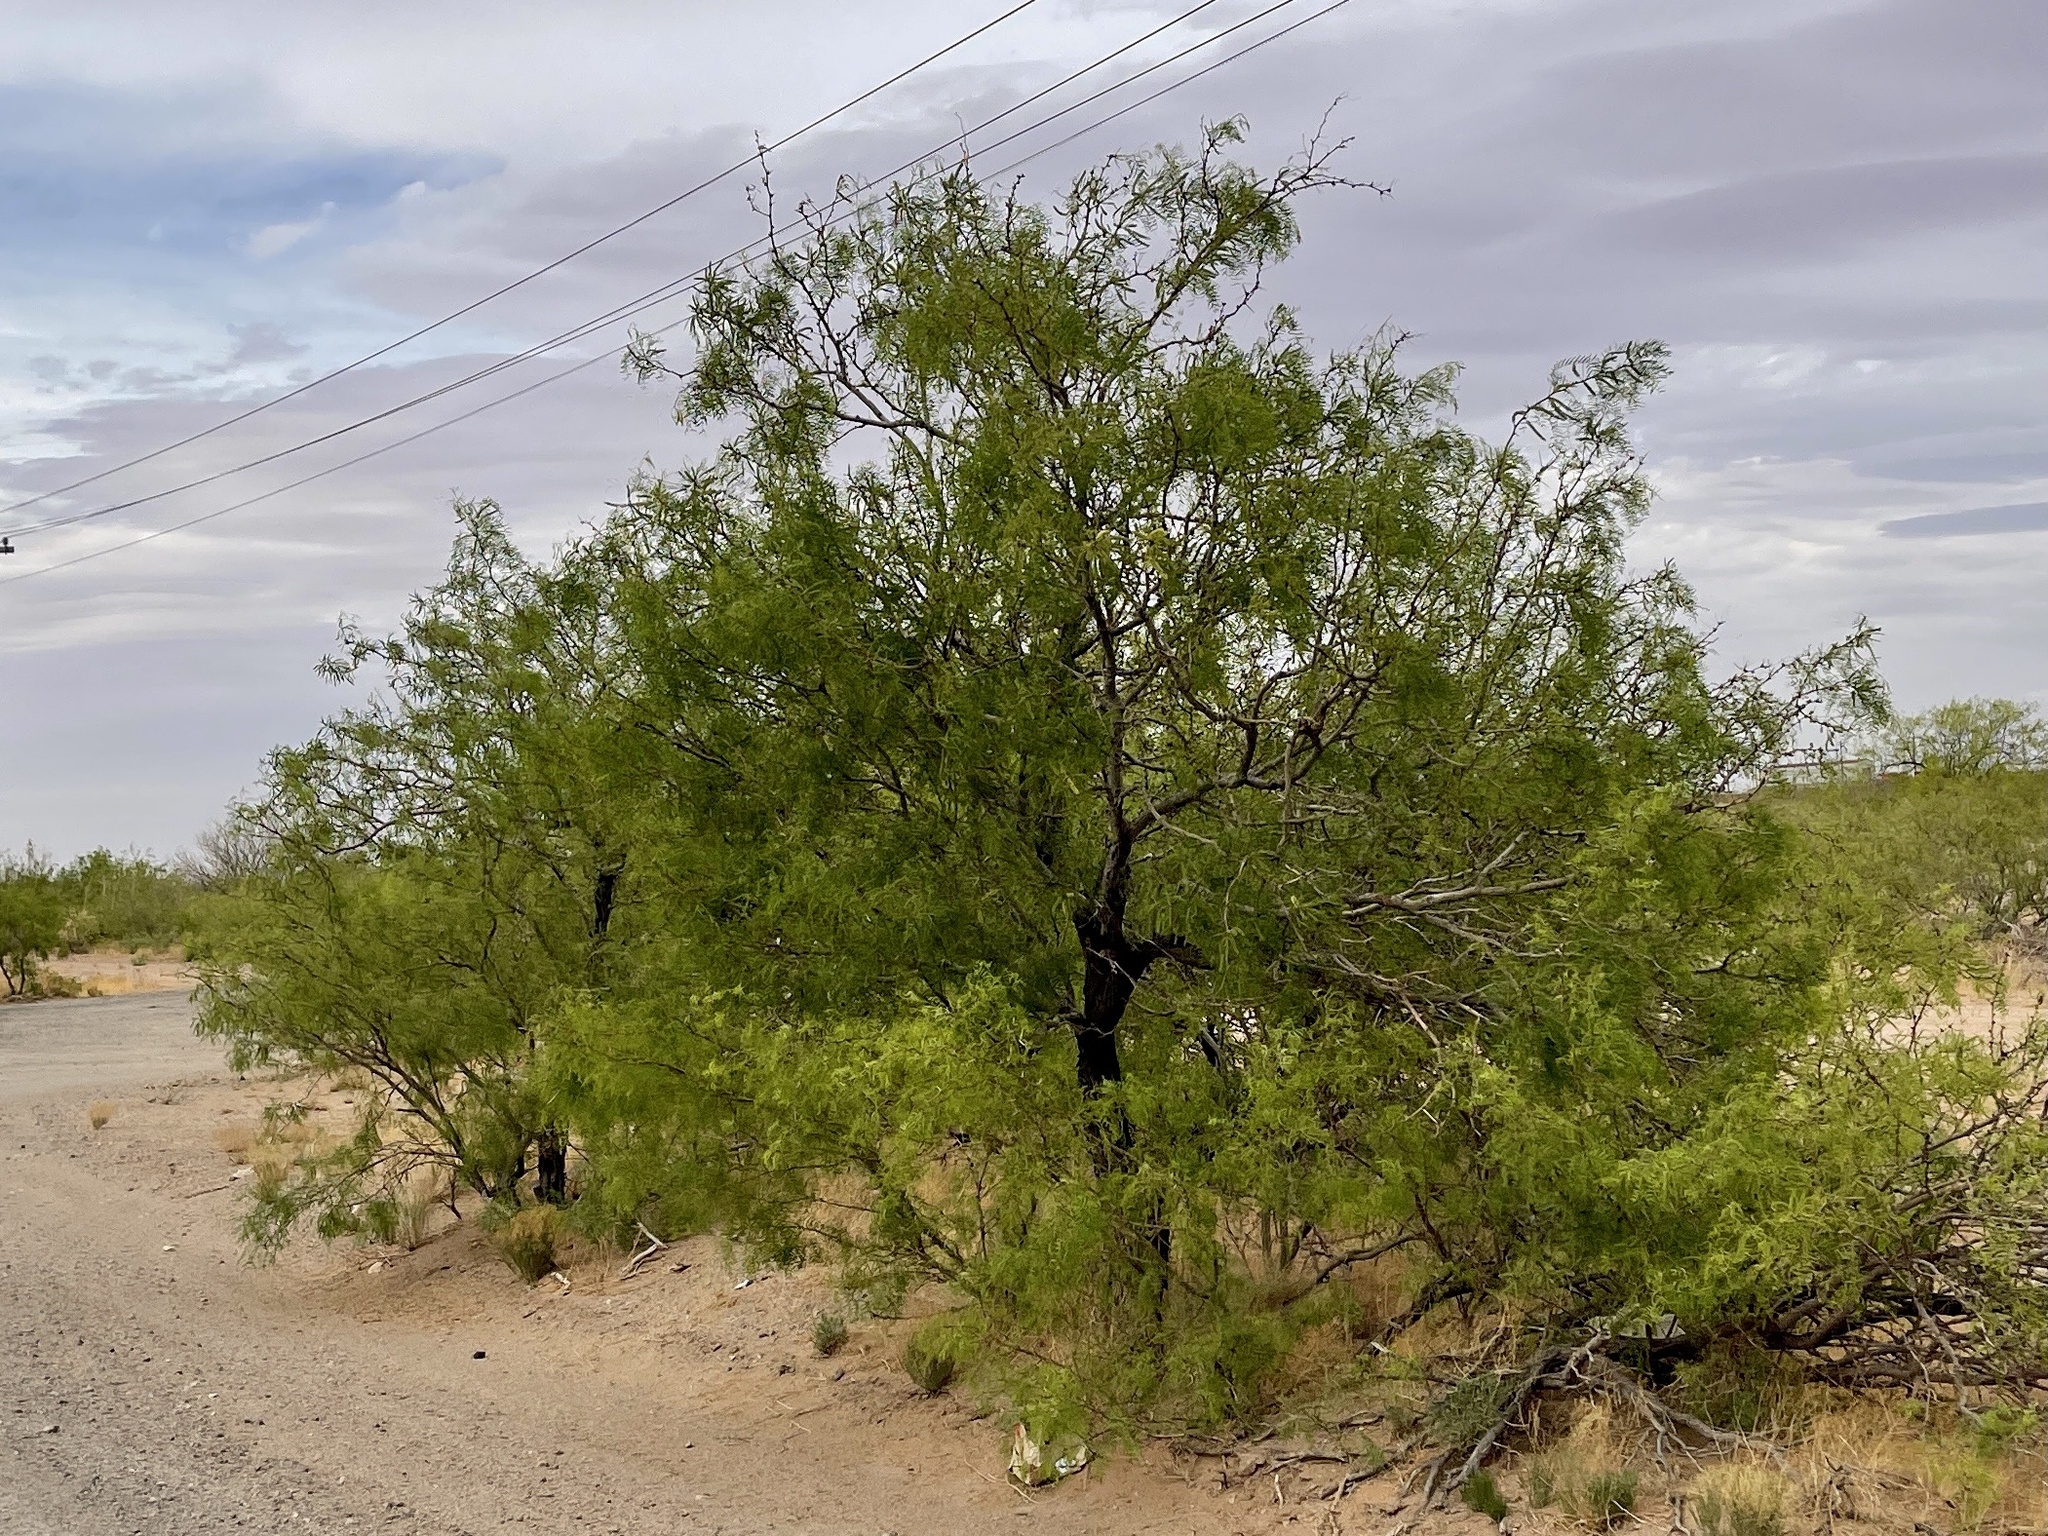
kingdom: Plantae
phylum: Tracheophyta
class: Magnoliopsida
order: Fabales
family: Fabaceae
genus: Prosopis
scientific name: Prosopis glandulosa
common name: Honey mesquite
